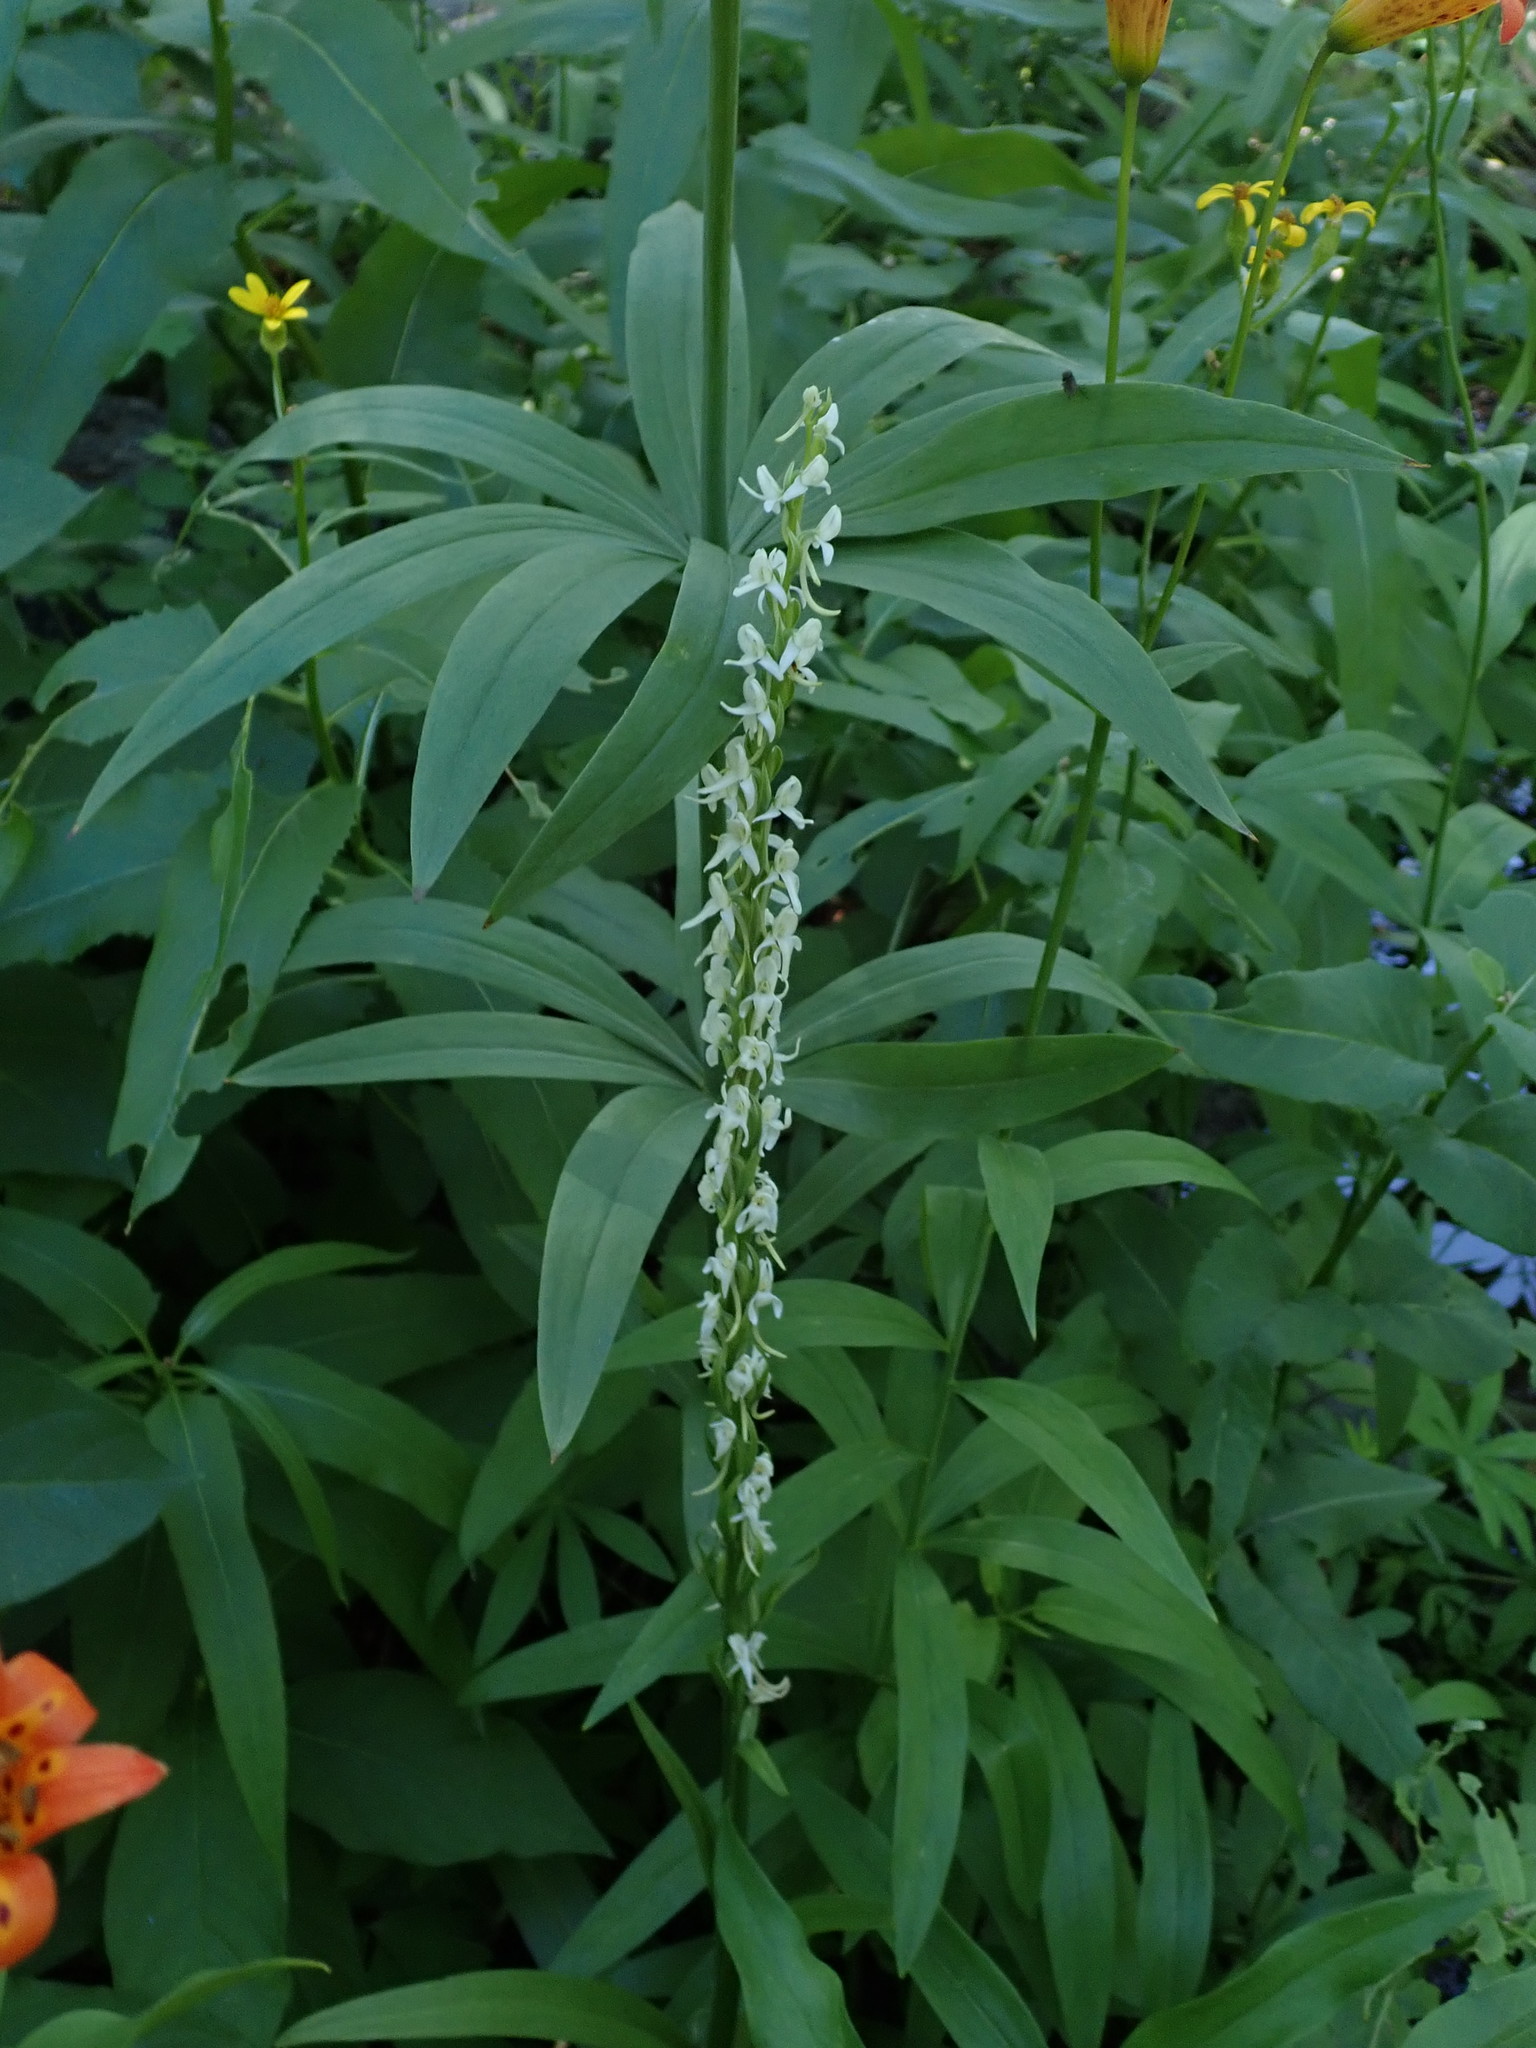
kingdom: Plantae
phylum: Tracheophyta
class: Liliopsida
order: Asparagales
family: Orchidaceae
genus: Platanthera
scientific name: Platanthera dilatata
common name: Bog candles
